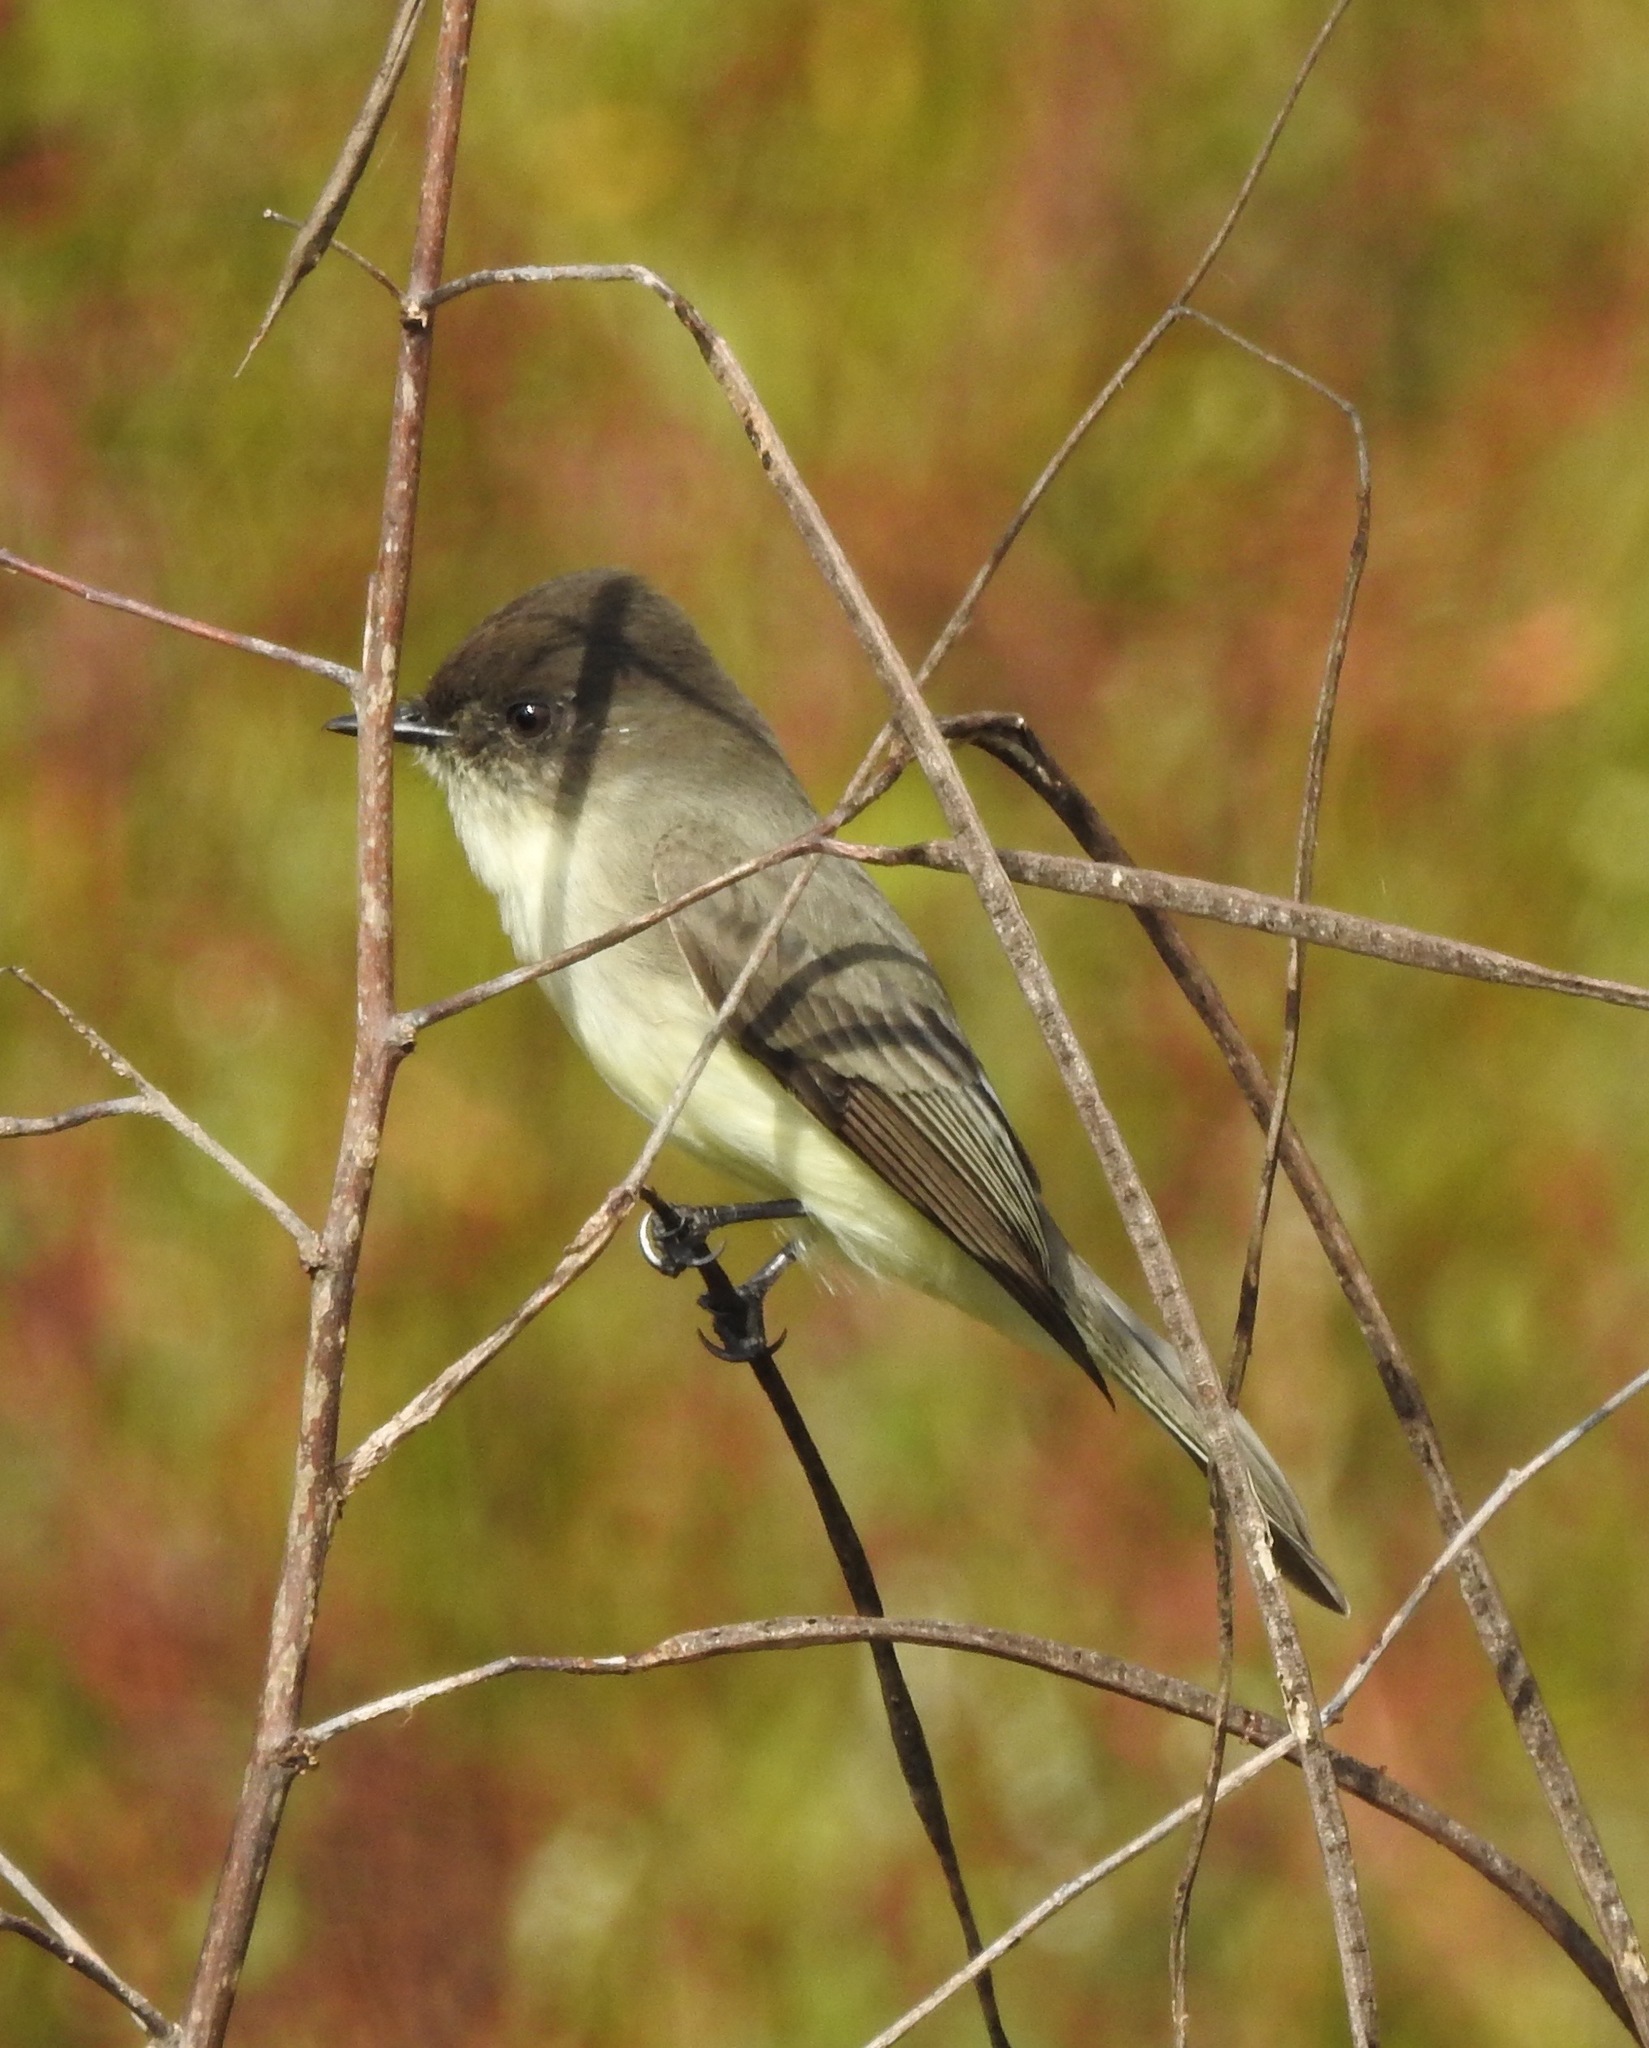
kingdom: Animalia
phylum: Chordata
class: Aves
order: Passeriformes
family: Tyrannidae
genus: Sayornis
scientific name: Sayornis phoebe
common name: Eastern phoebe
